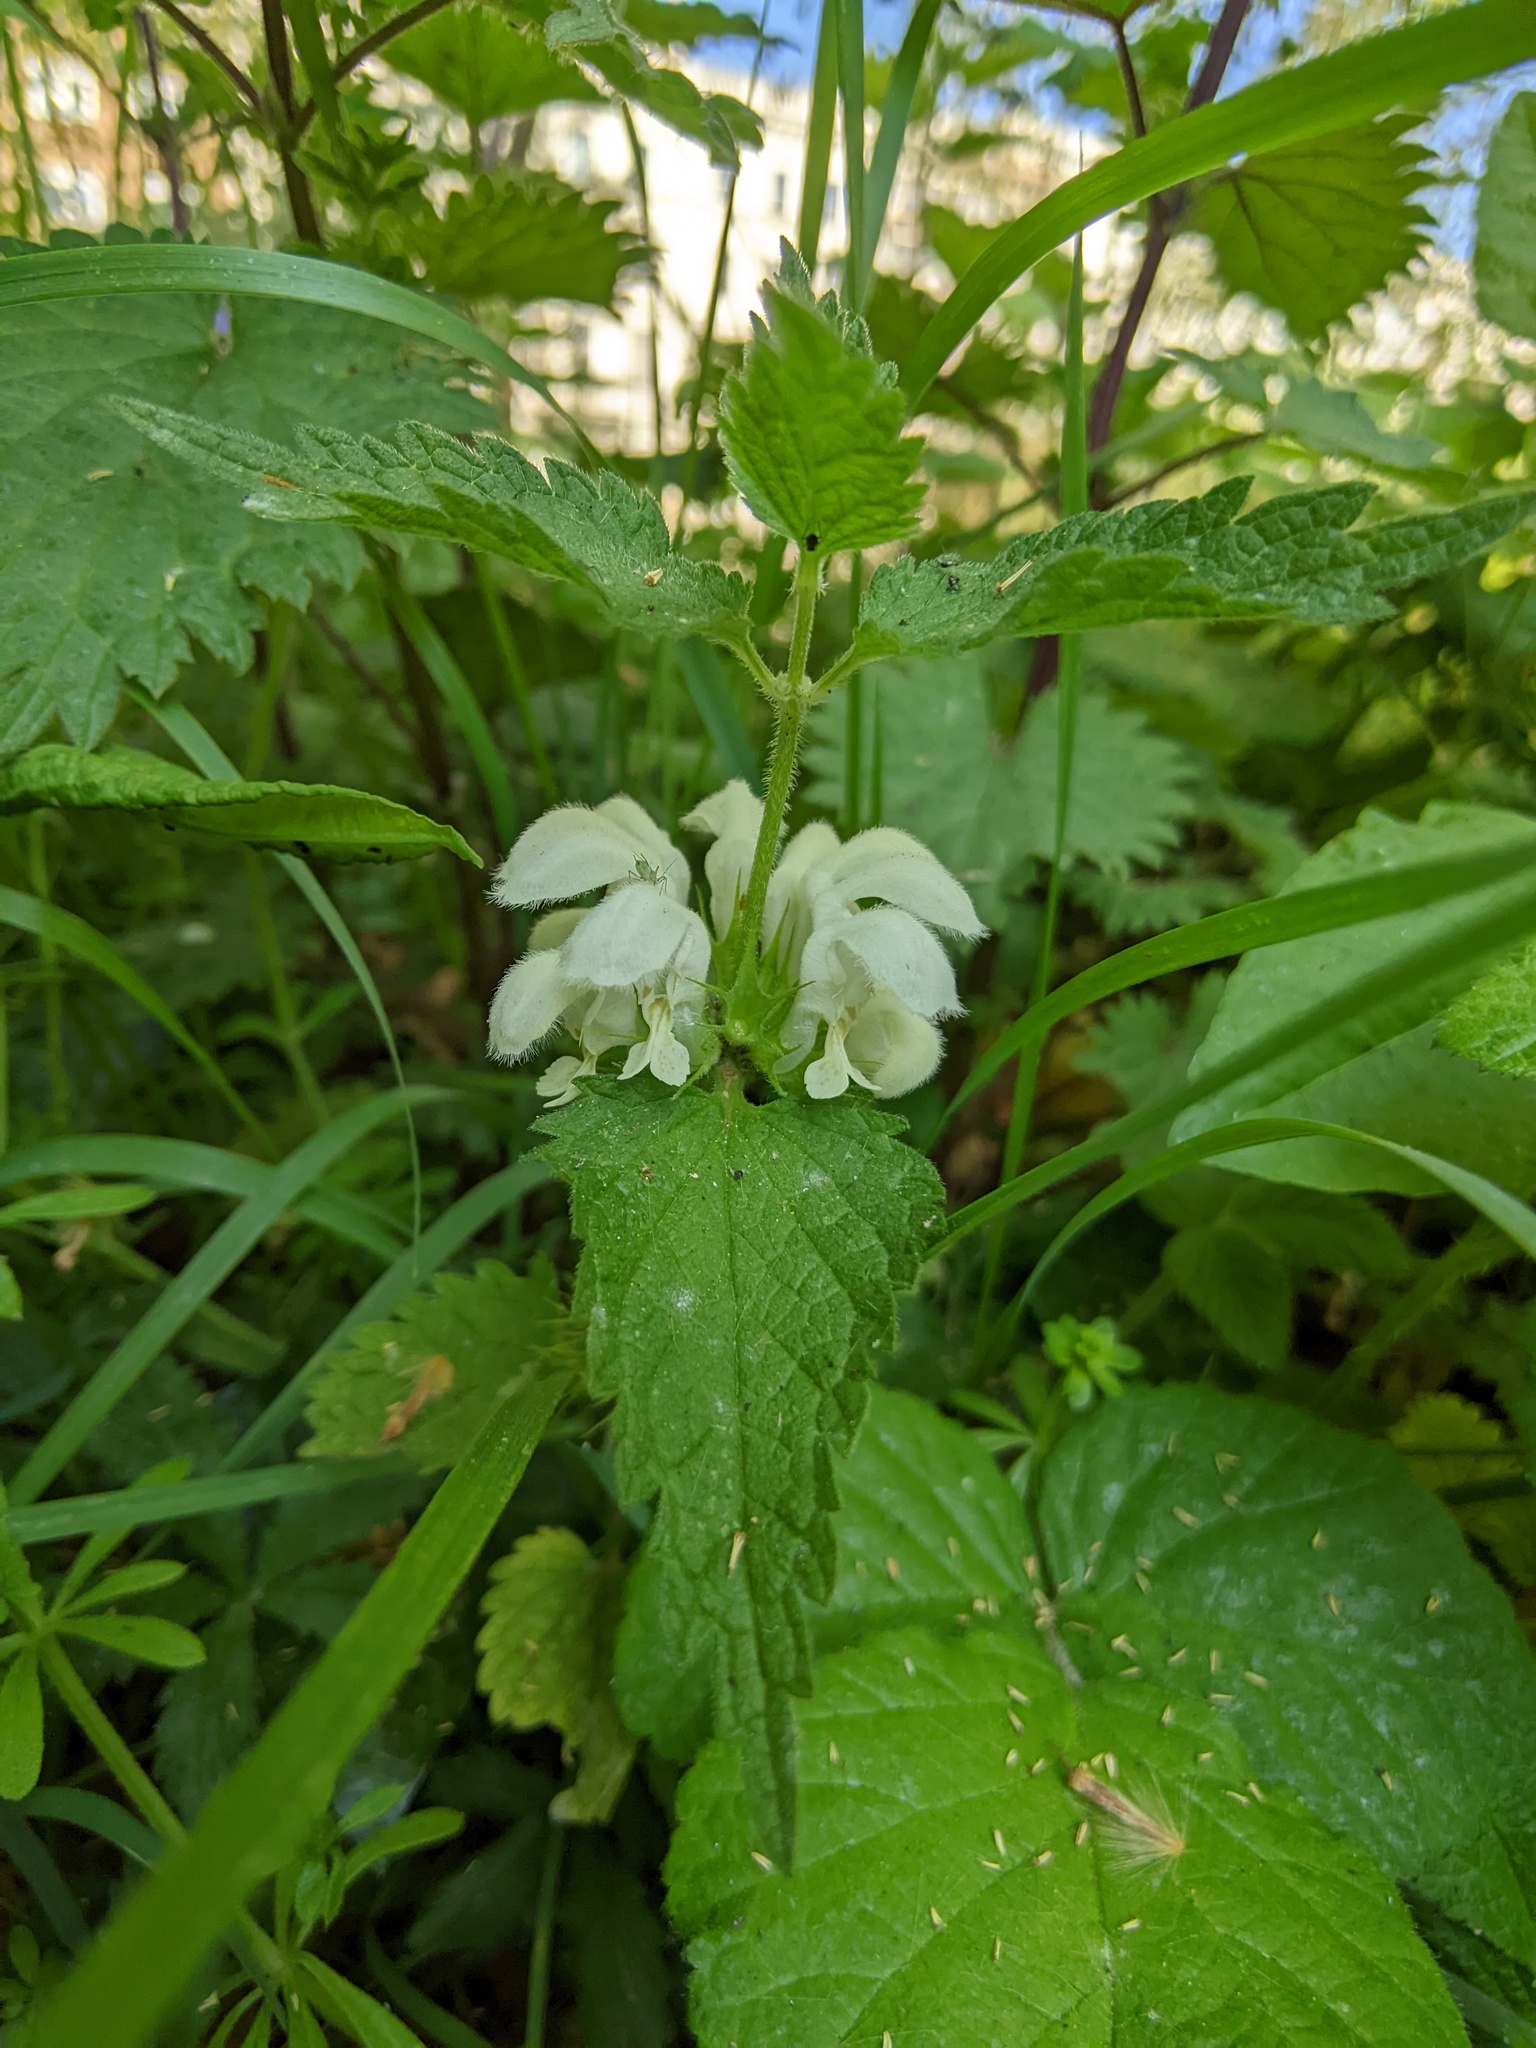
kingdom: Plantae
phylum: Tracheophyta
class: Magnoliopsida
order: Lamiales
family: Lamiaceae
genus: Lamium
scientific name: Lamium album
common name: White dead-nettle
